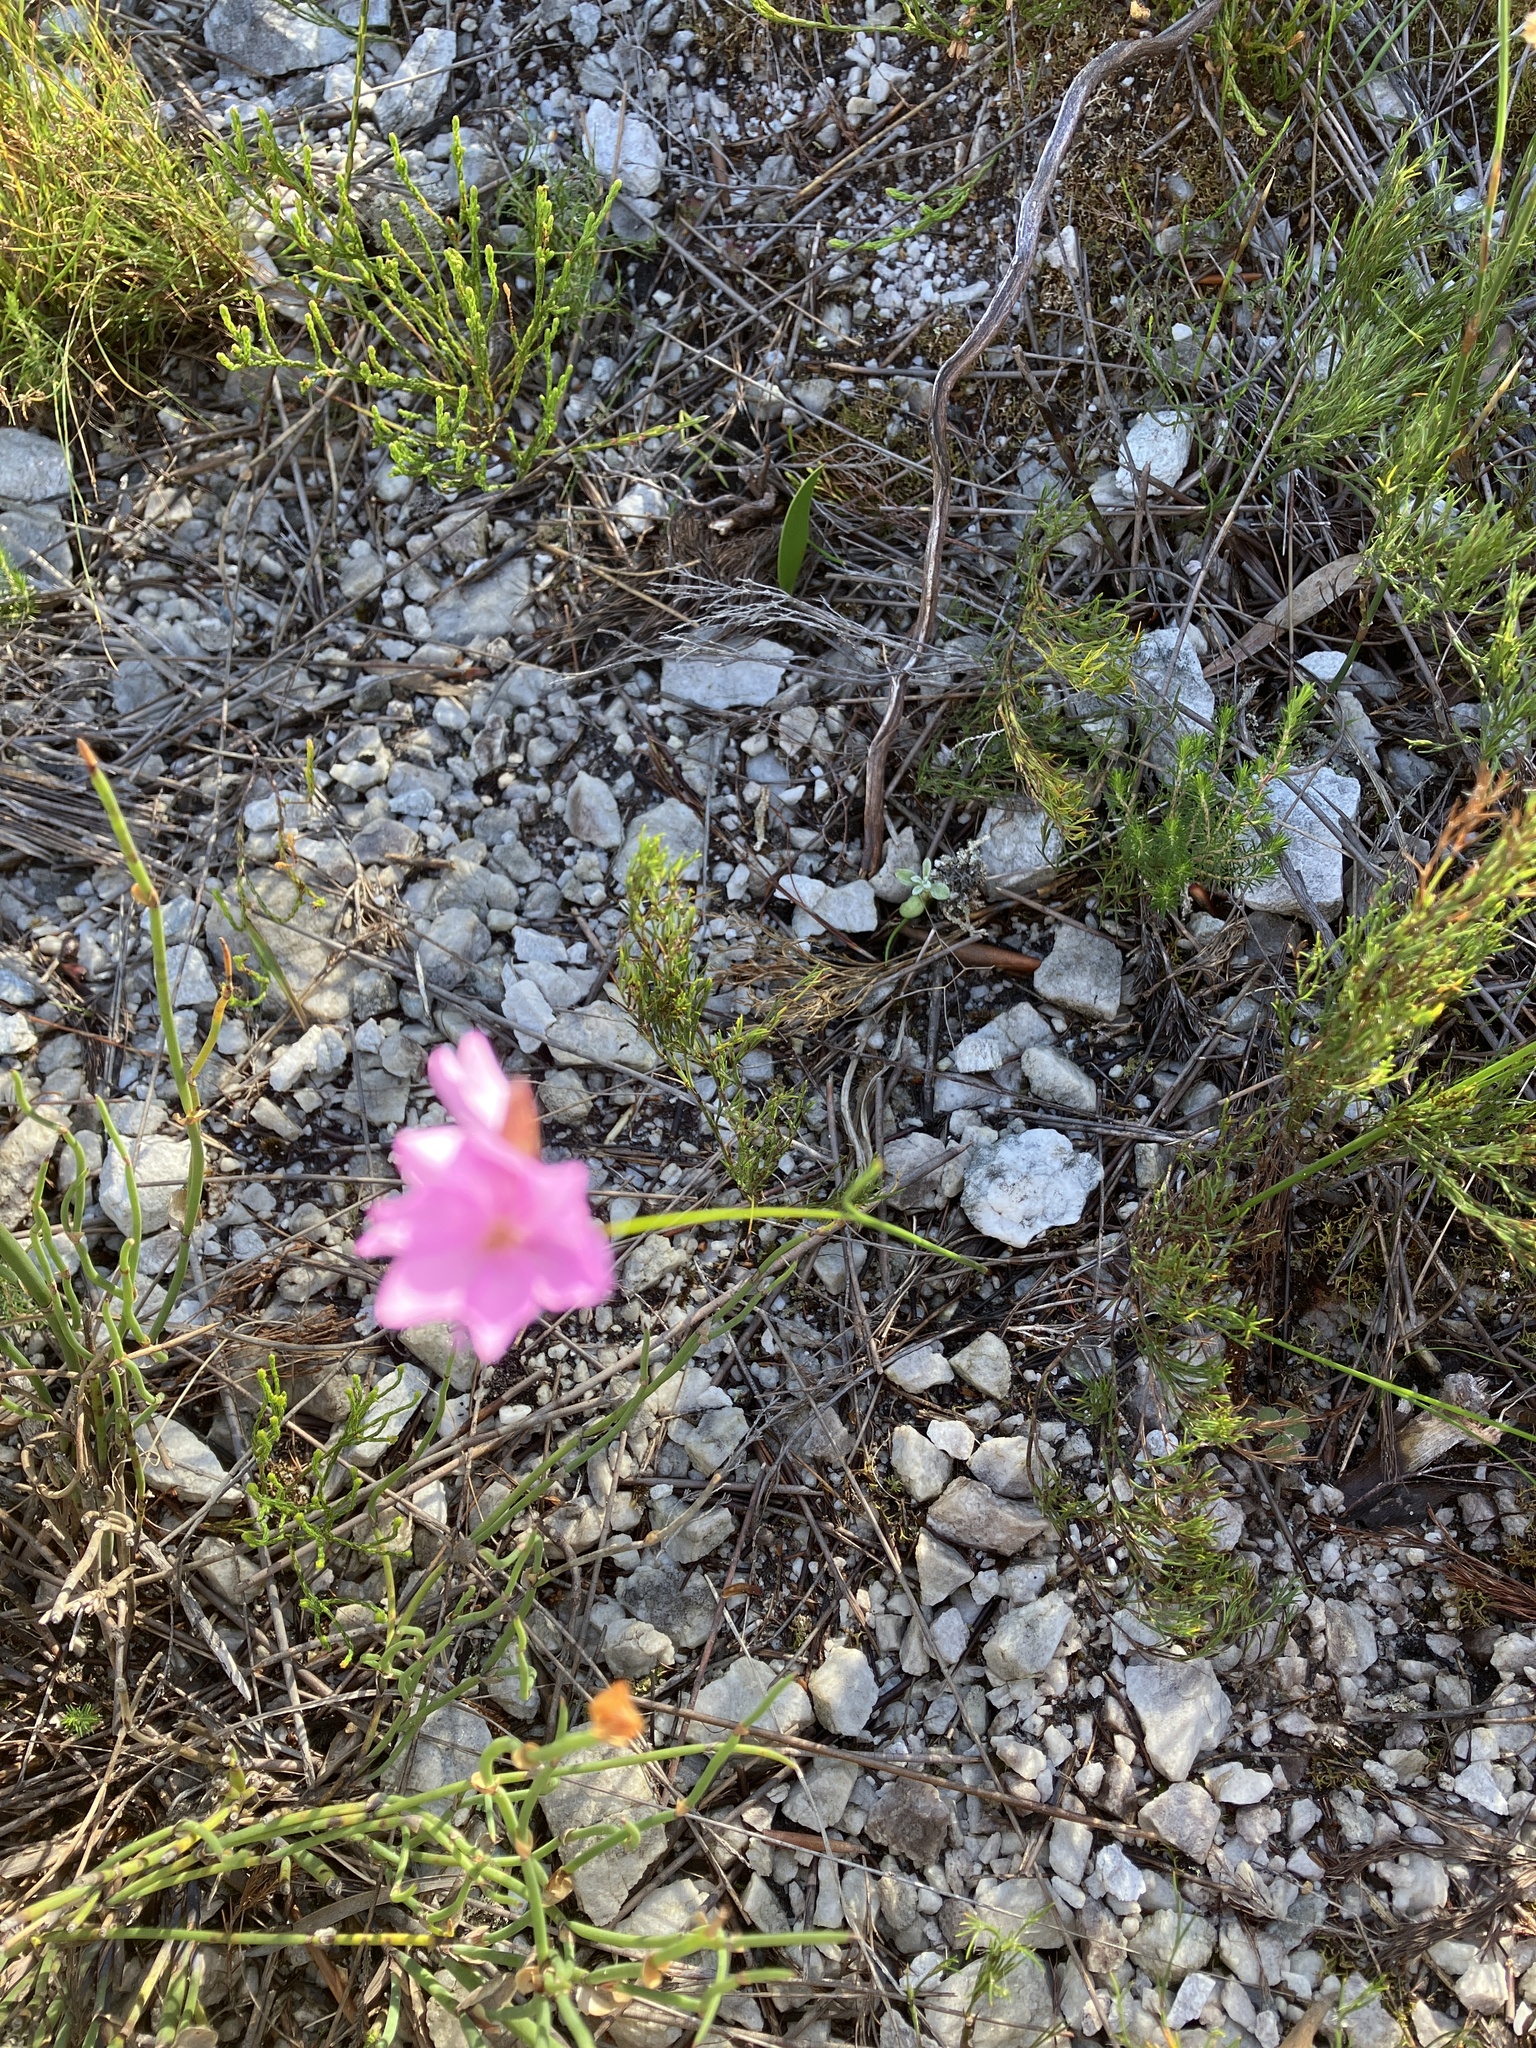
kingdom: Plantae
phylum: Tracheophyta
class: Liliopsida
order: Asparagales
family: Iridaceae
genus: Ixia
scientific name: Ixia micrandra
